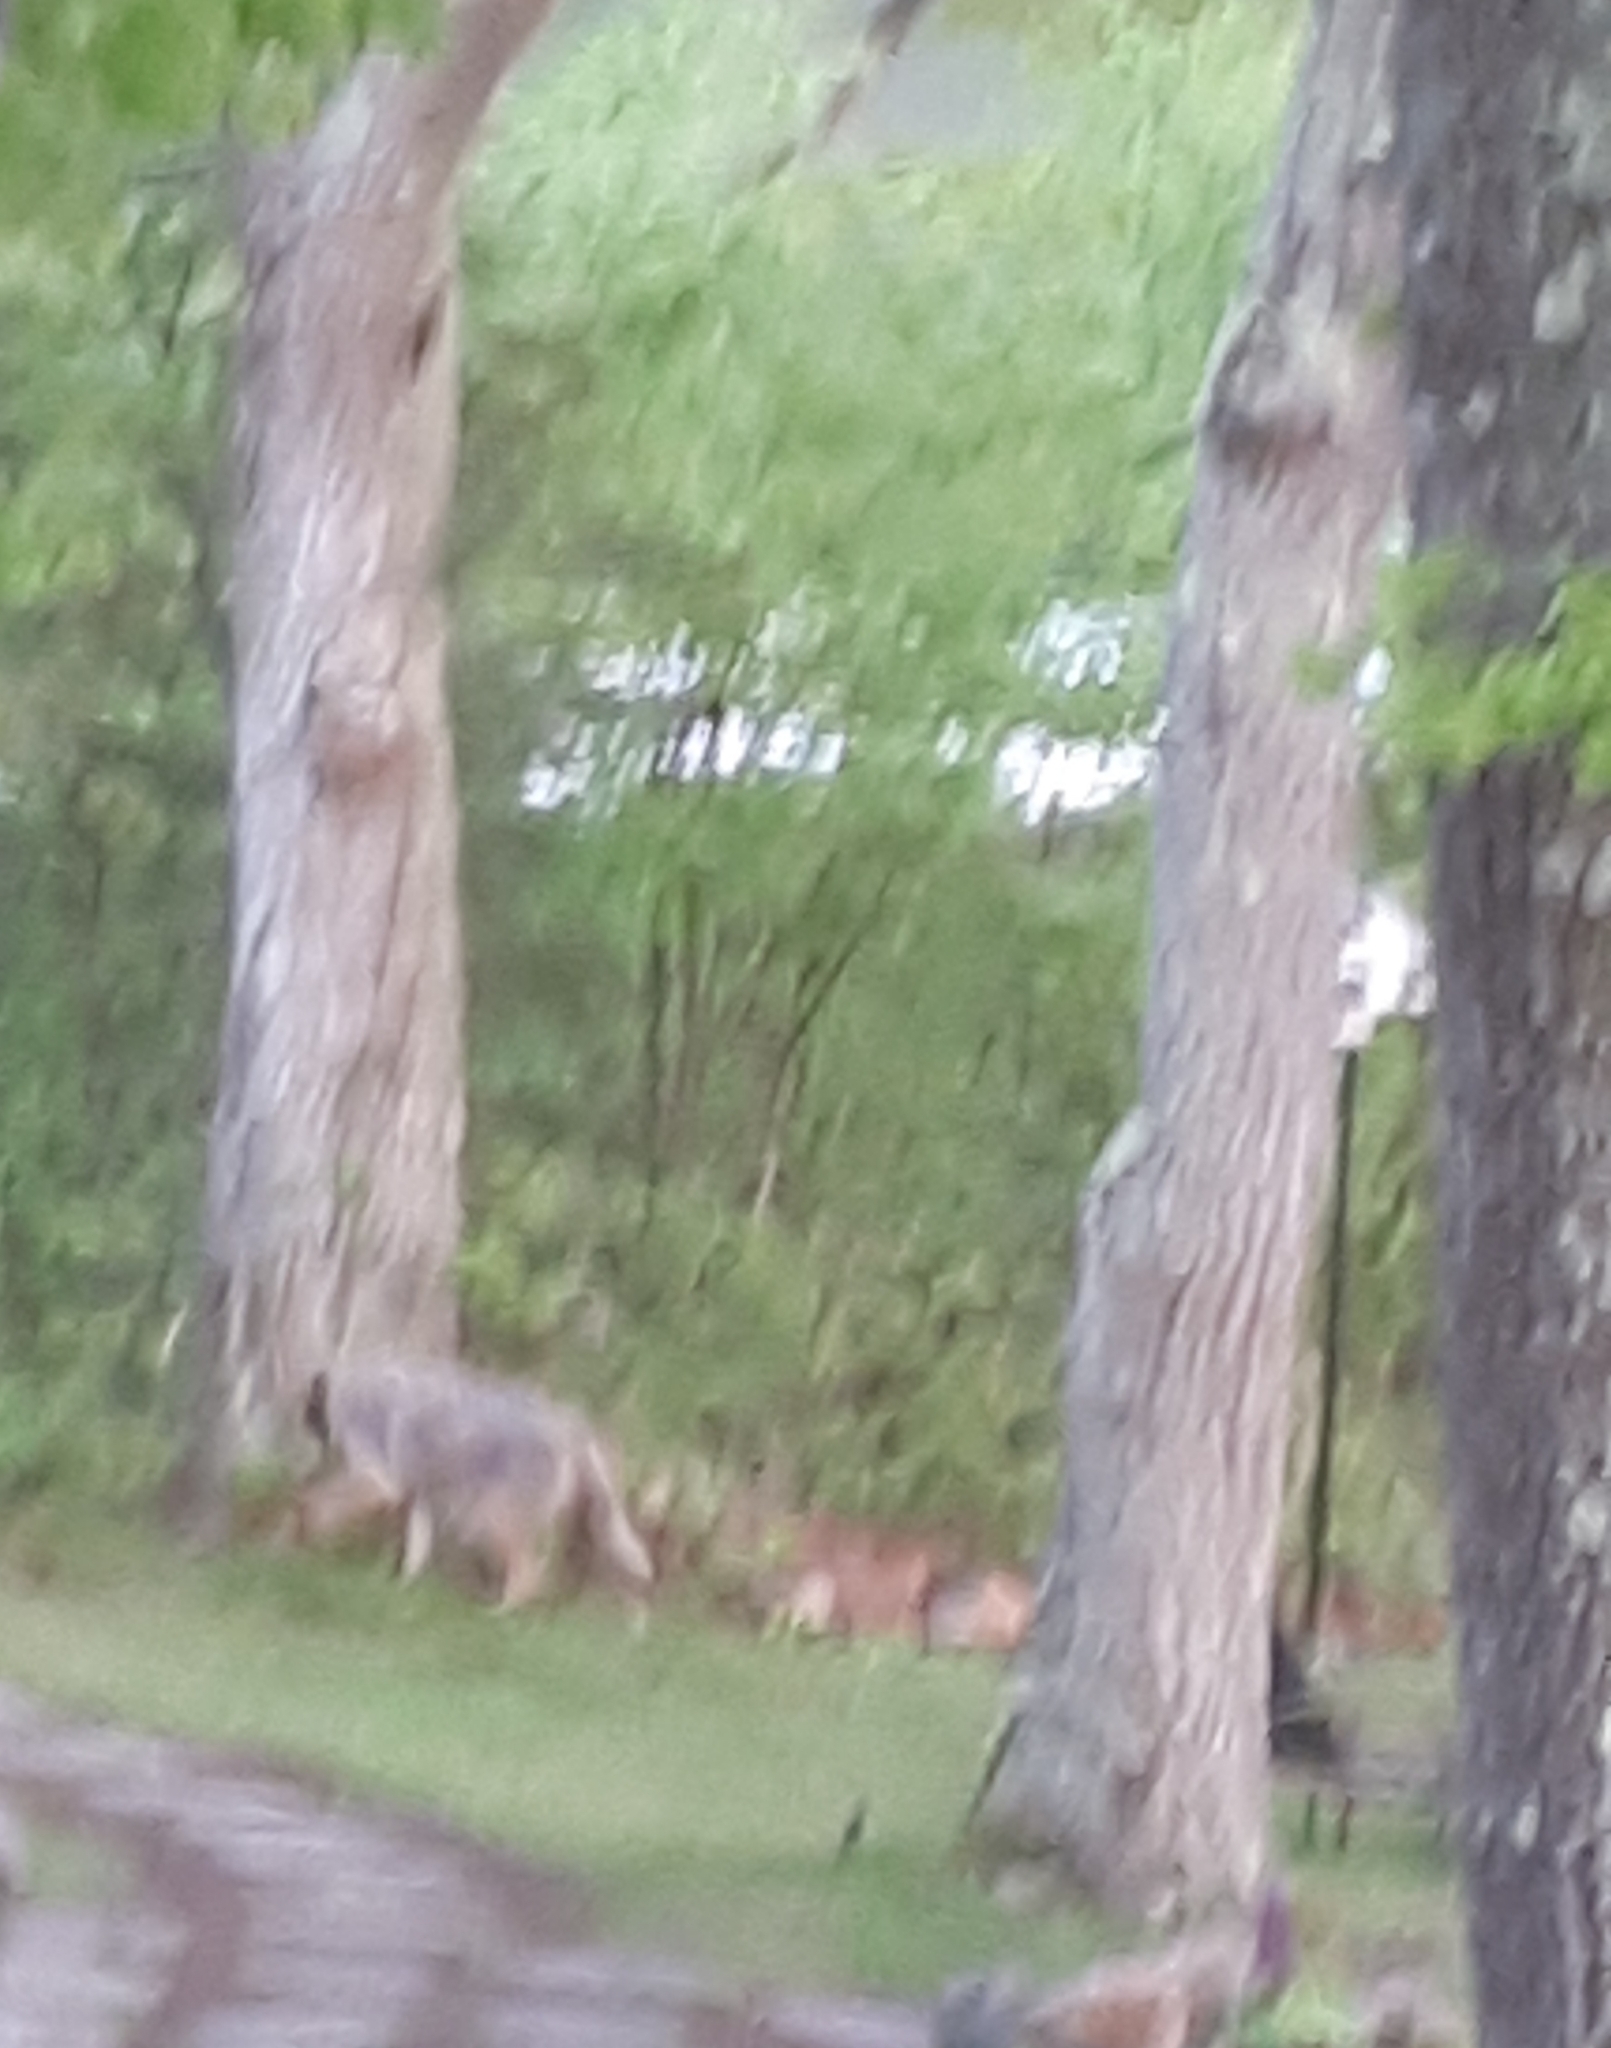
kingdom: Animalia
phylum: Chordata
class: Mammalia
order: Carnivora
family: Canidae
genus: Canis
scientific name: Canis lycaon
